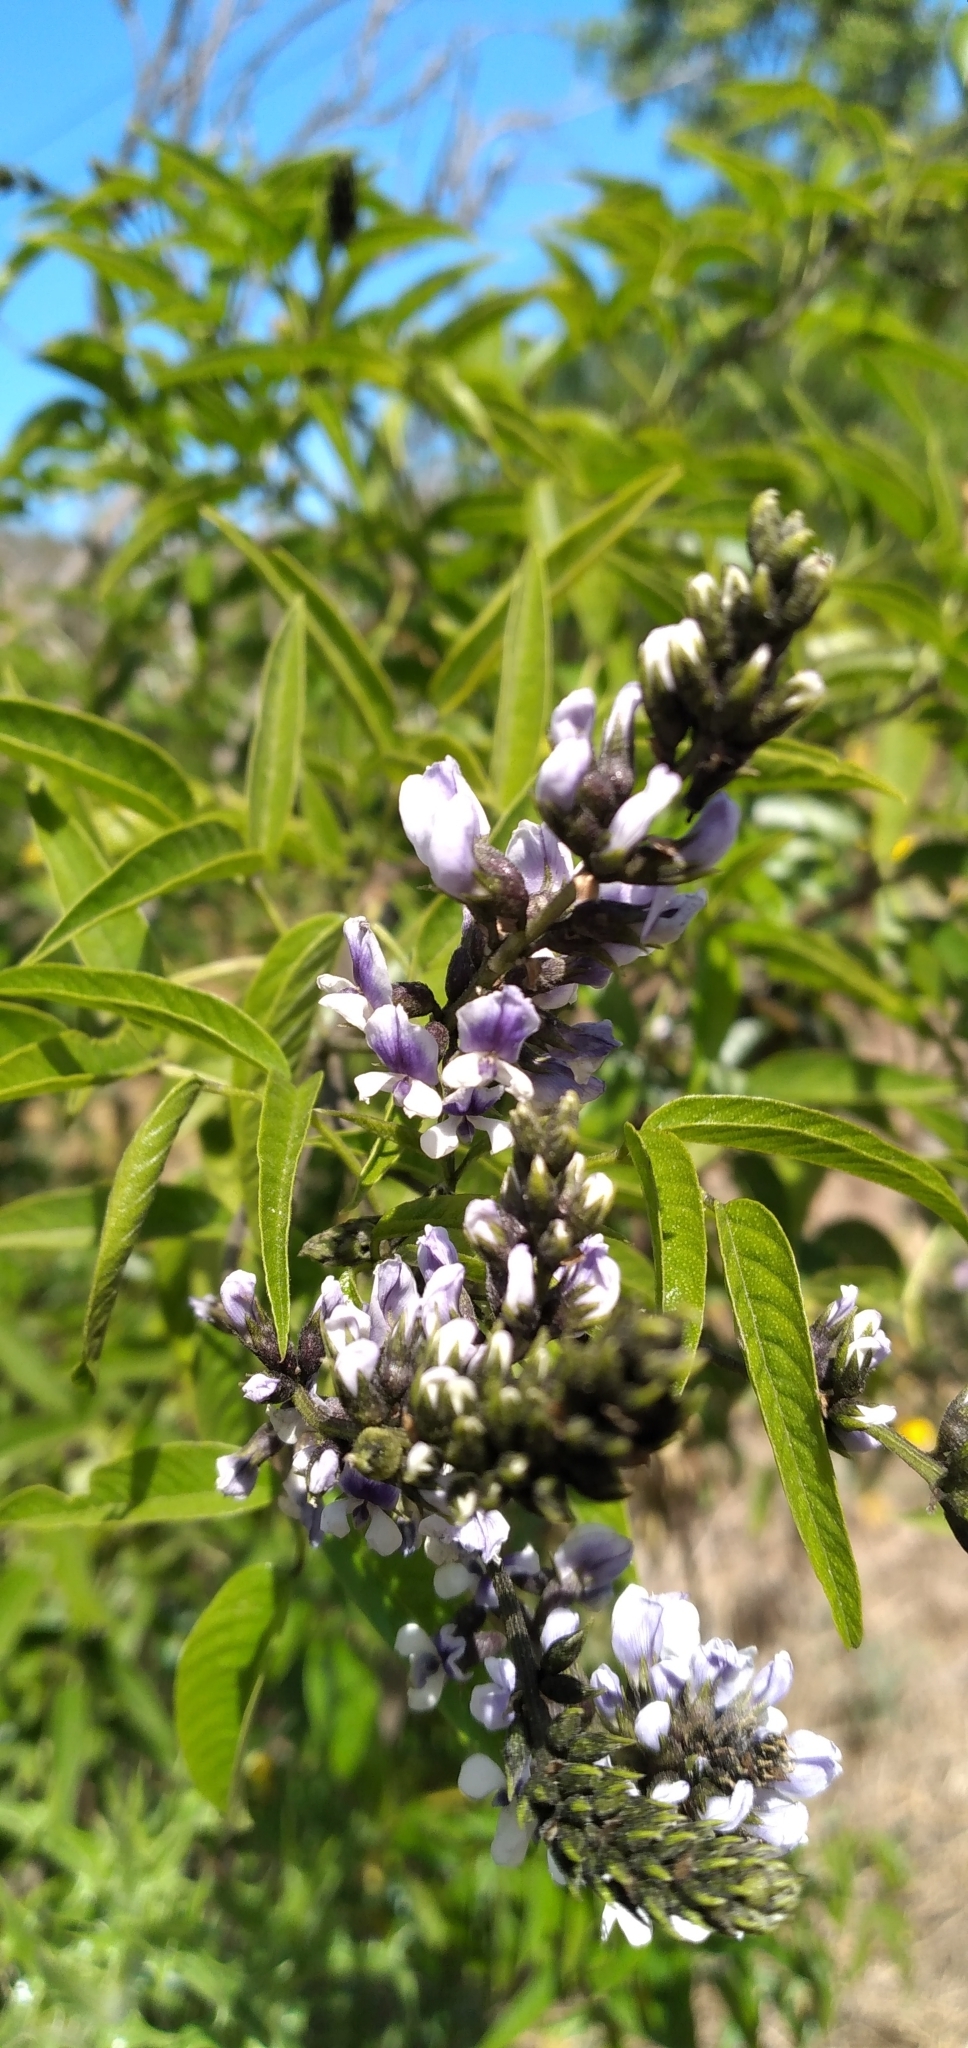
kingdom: Plantae
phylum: Tracheophyta
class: Magnoliopsida
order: Fabales
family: Fabaceae
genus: Psoralea
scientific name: Psoralea Otholobium glandulosum
